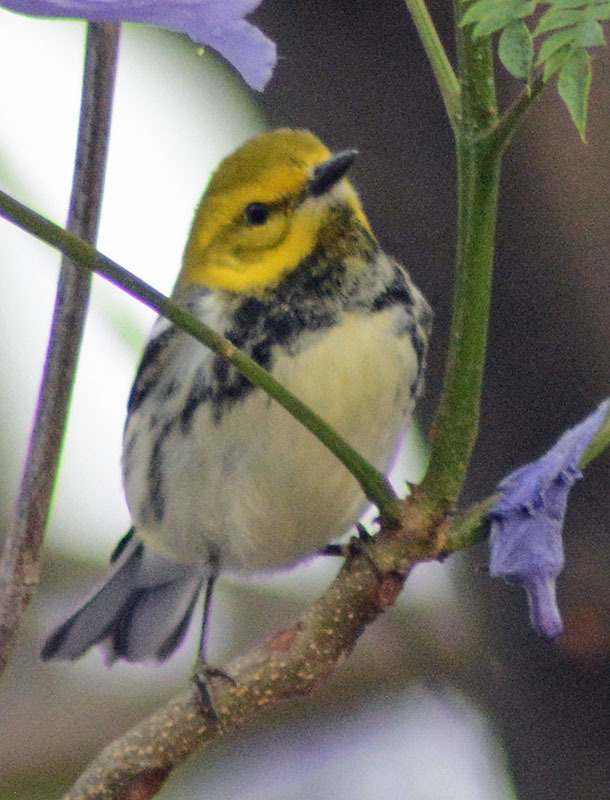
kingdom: Animalia
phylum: Chordata
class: Aves
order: Passeriformes
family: Parulidae
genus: Setophaga
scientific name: Setophaga virens
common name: Black-throated green warbler
